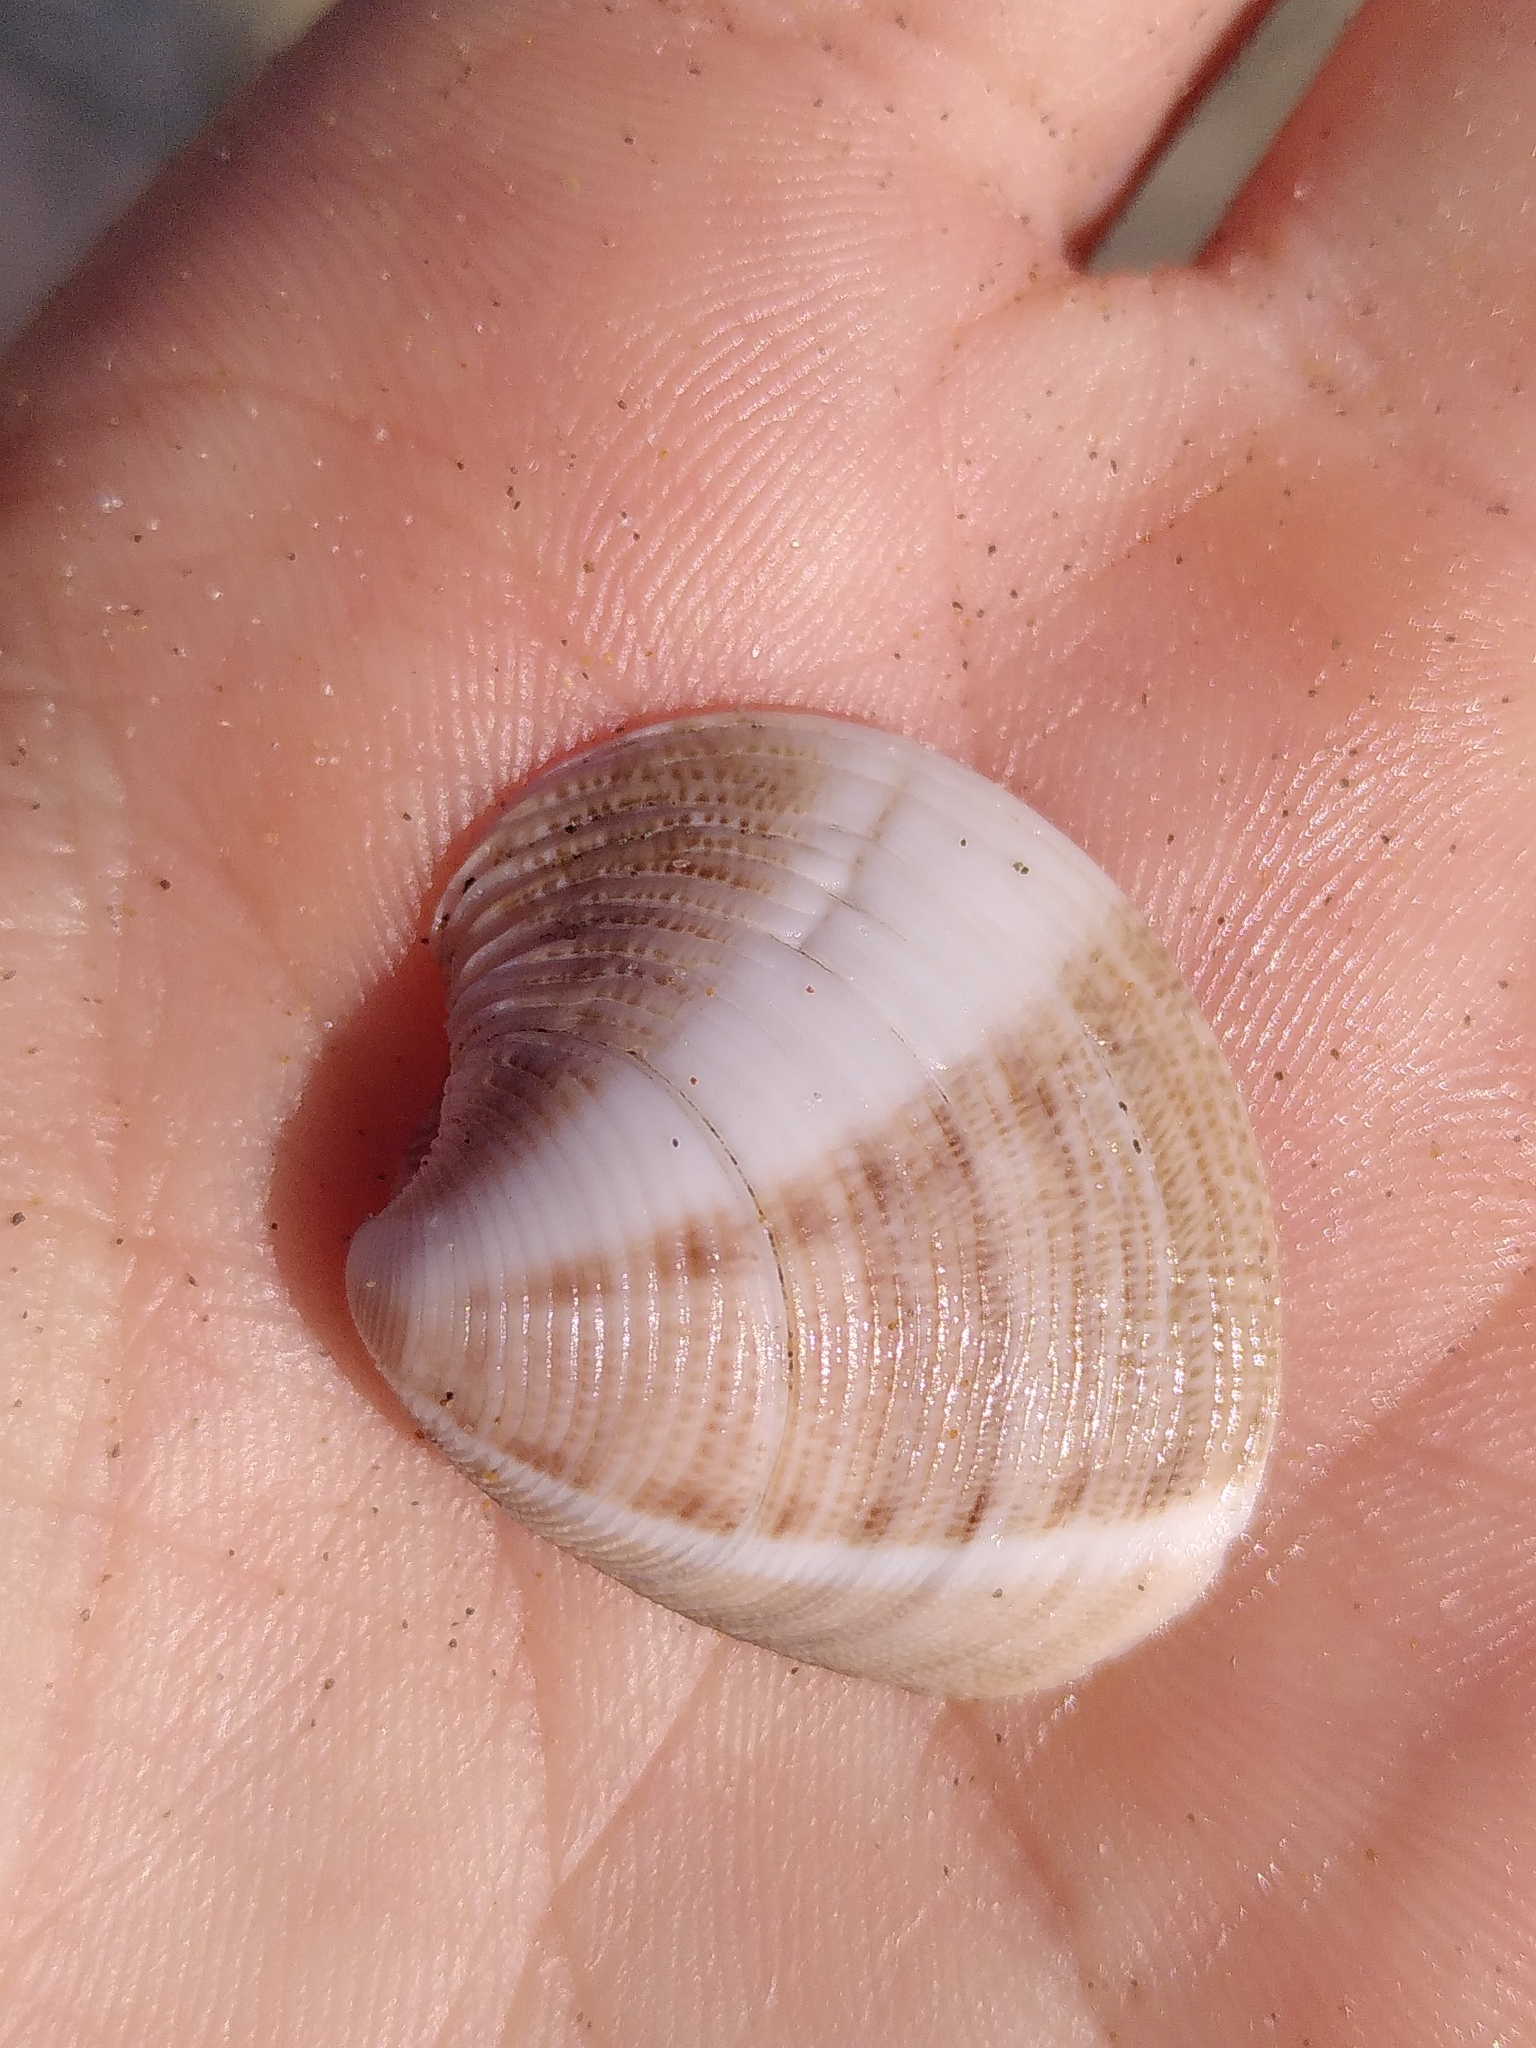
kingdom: Animalia
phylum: Mollusca
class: Bivalvia
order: Venerida
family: Veneridae
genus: Chamelea
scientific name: Chamelea gallina
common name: Chicken venus
